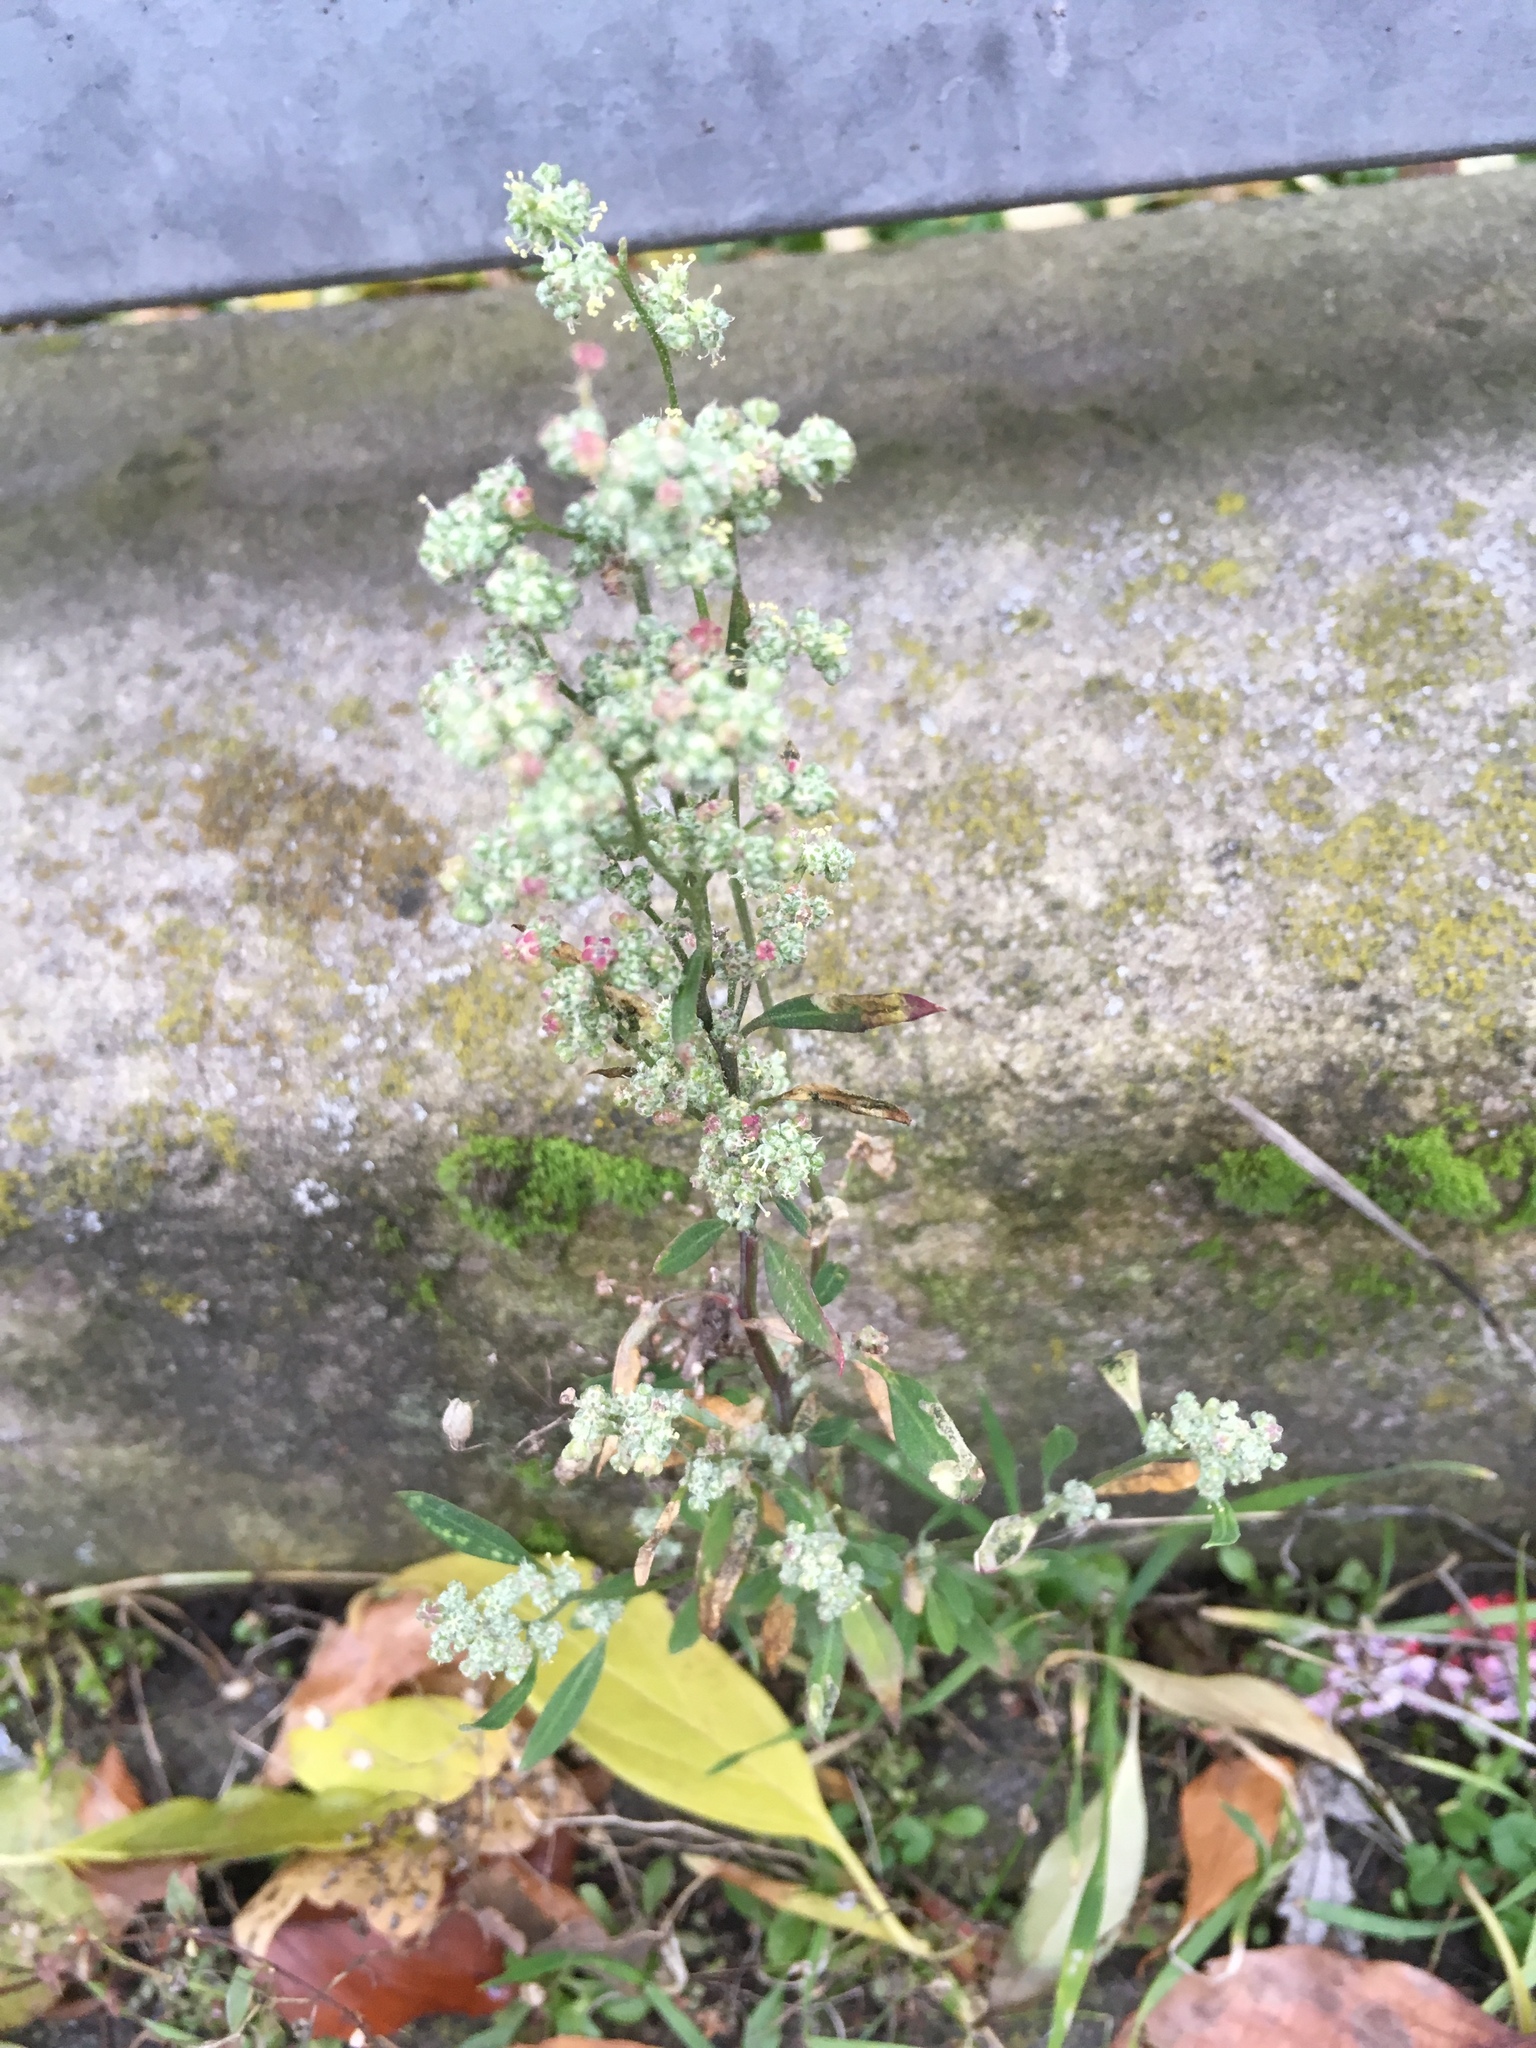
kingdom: Plantae
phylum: Tracheophyta
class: Magnoliopsida
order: Caryophyllales
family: Amaranthaceae
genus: Chenopodium
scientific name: Chenopodium album
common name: Fat-hen
